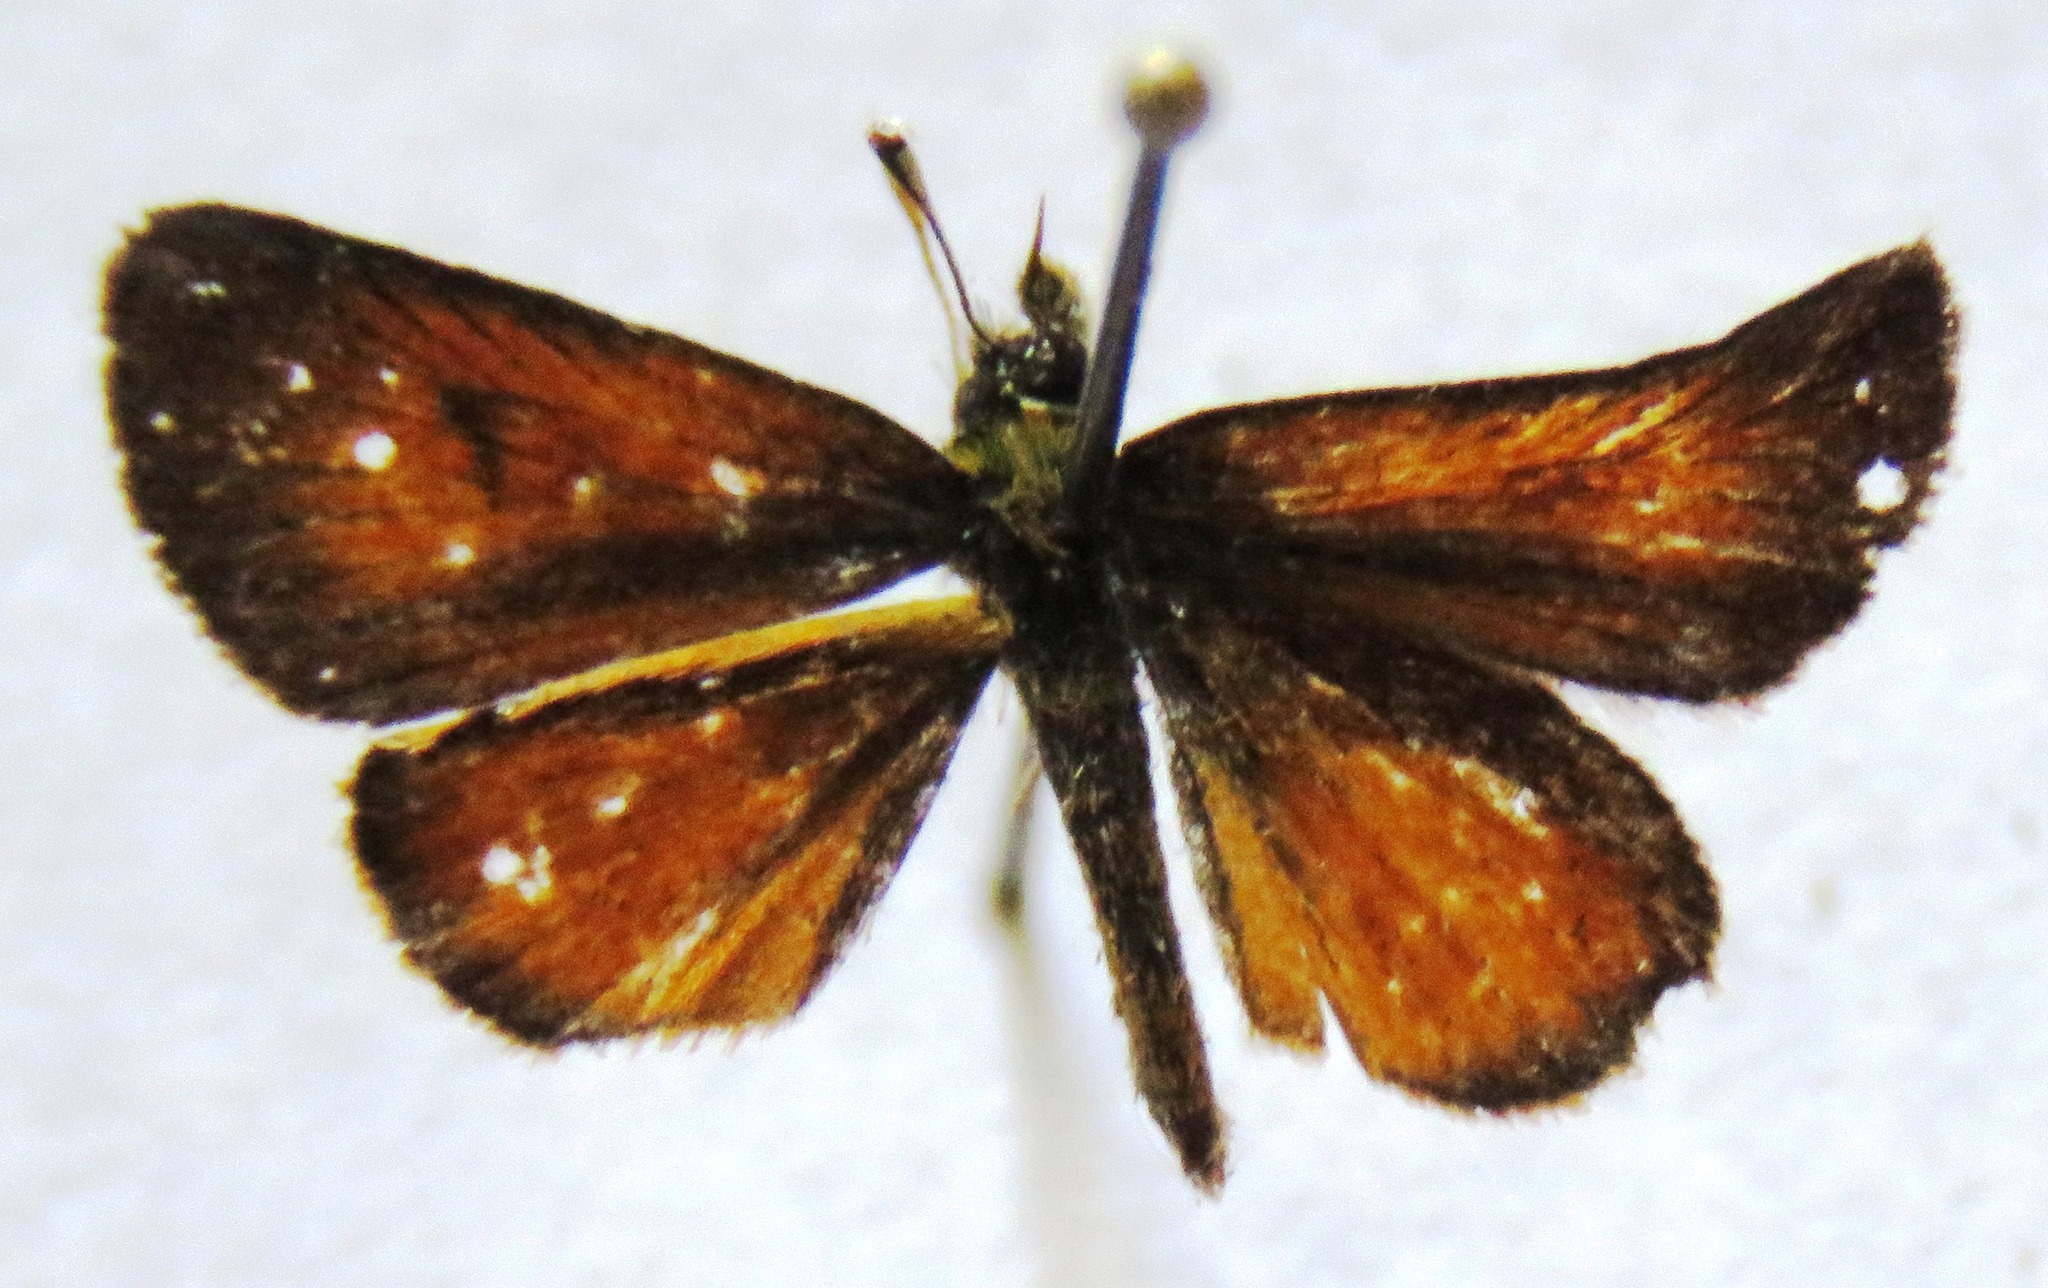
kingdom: Animalia
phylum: Arthropoda
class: Insecta
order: Lepidoptera
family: Hesperiidae
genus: Ancyloxypha
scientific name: Ancyloxypha arene
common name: Tropical least skipper
